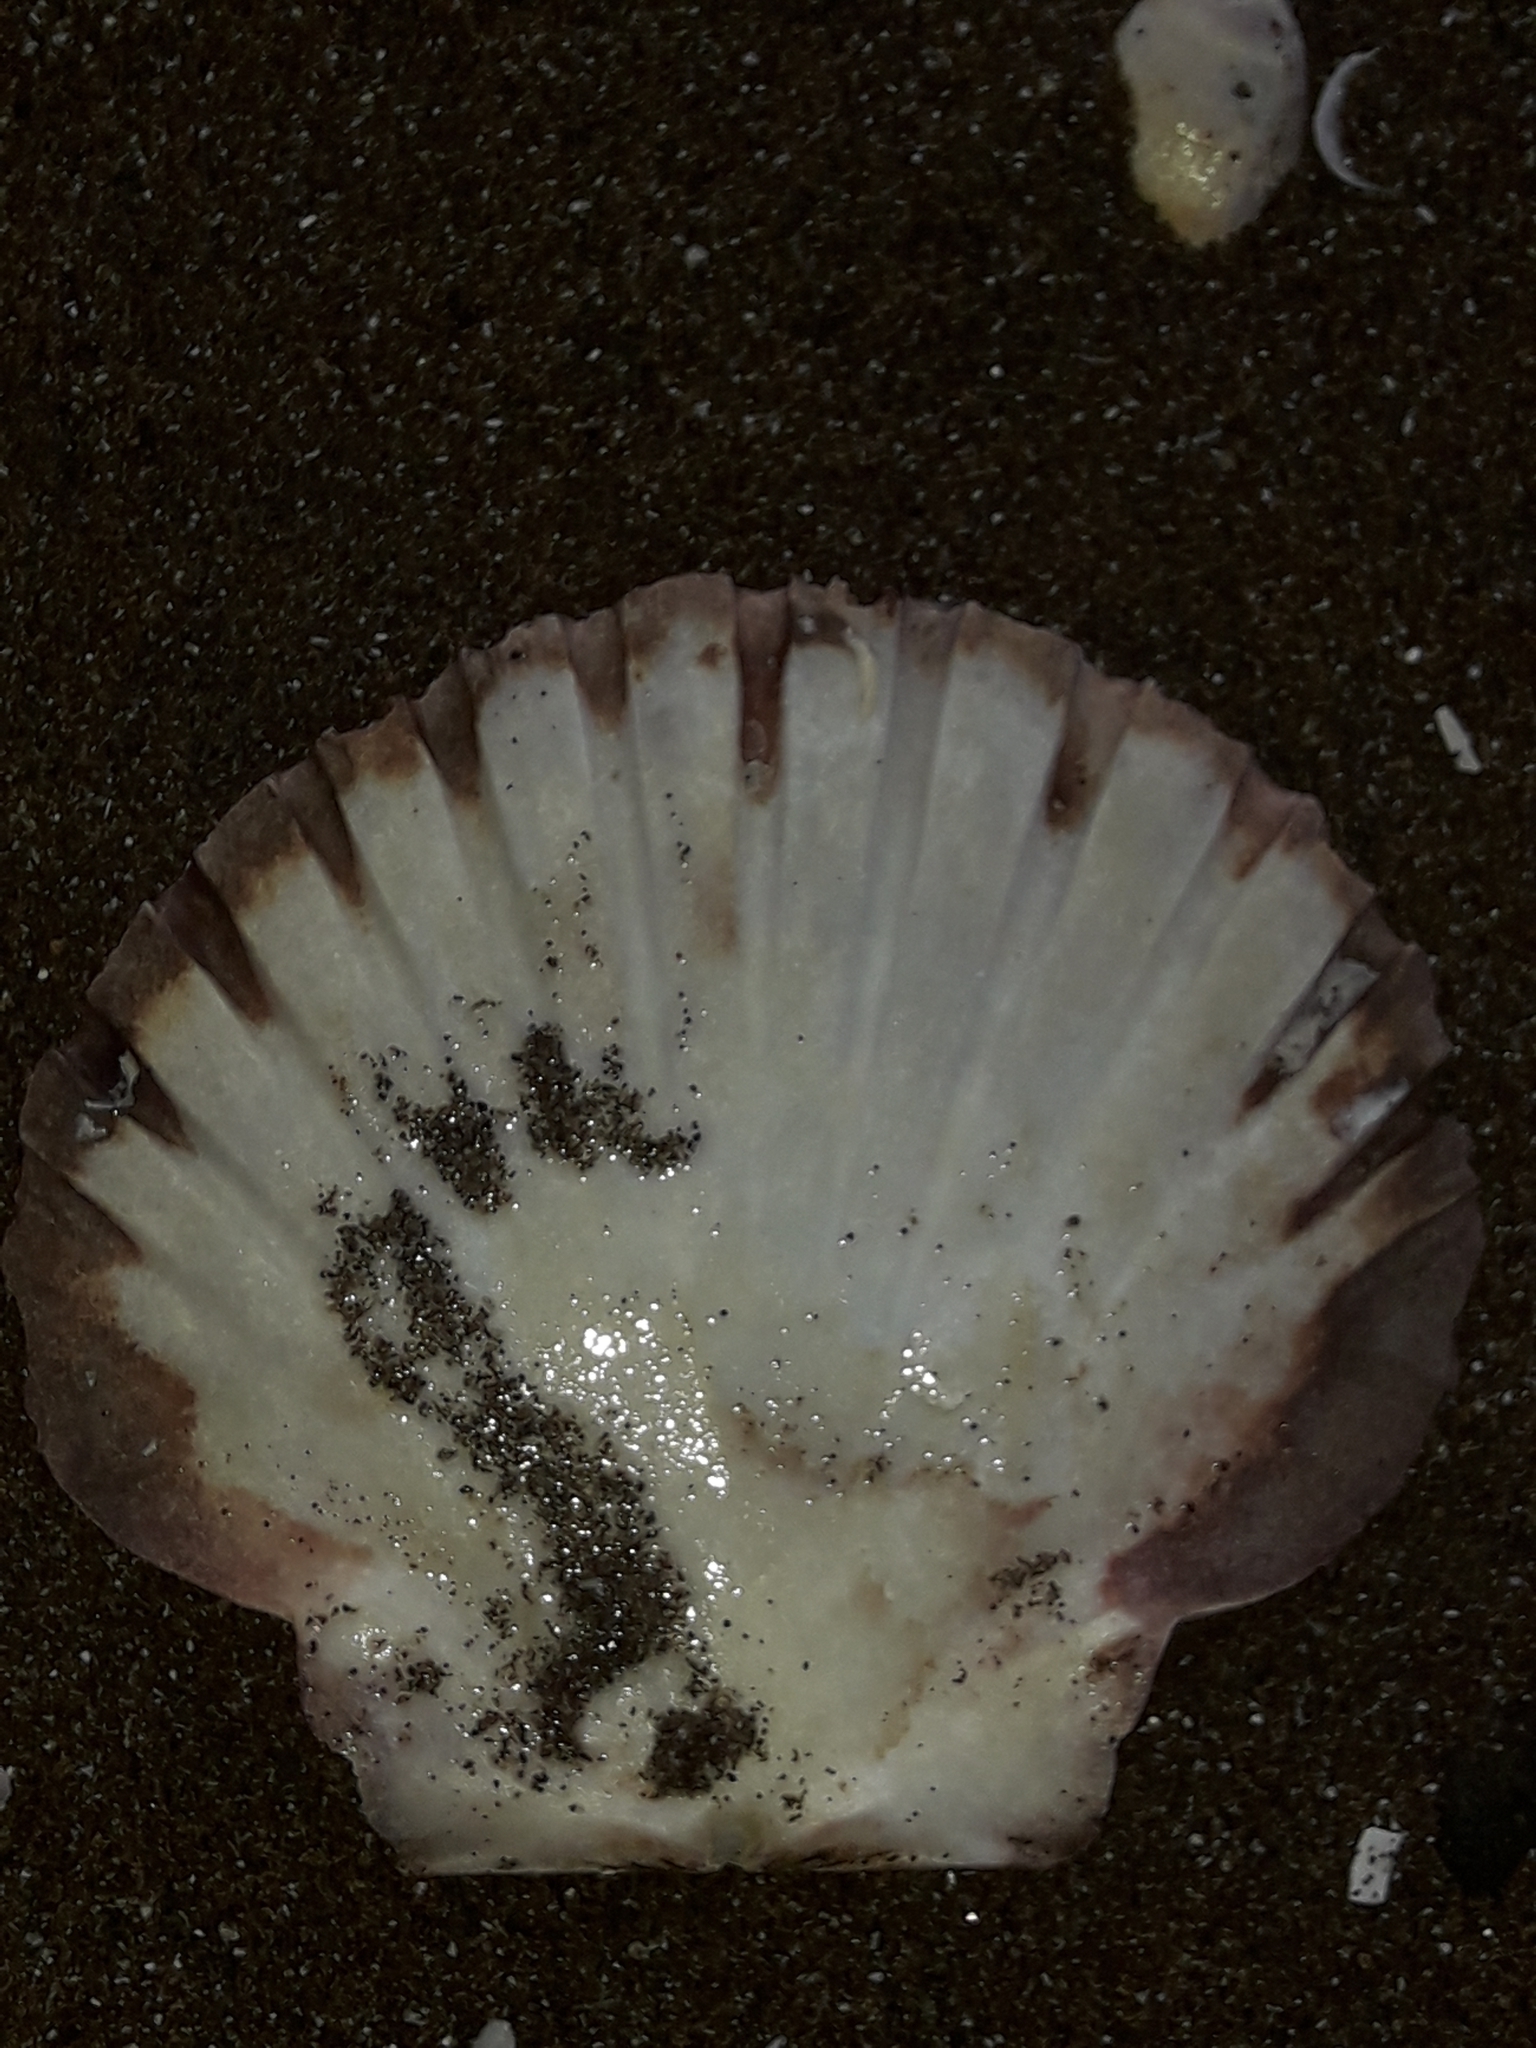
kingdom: Animalia
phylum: Mollusca
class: Bivalvia
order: Pectinida
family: Pectinidae
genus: Pecten
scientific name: Pecten novaezelandiae
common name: New zealand scallop
